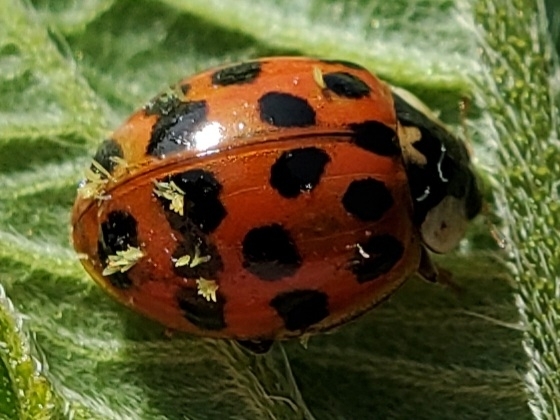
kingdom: Fungi
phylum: Ascomycota
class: Laboulbeniomycetes
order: Laboulbeniales
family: Laboulbeniaceae
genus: Hesperomyces
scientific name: Hesperomyces harmoniae
